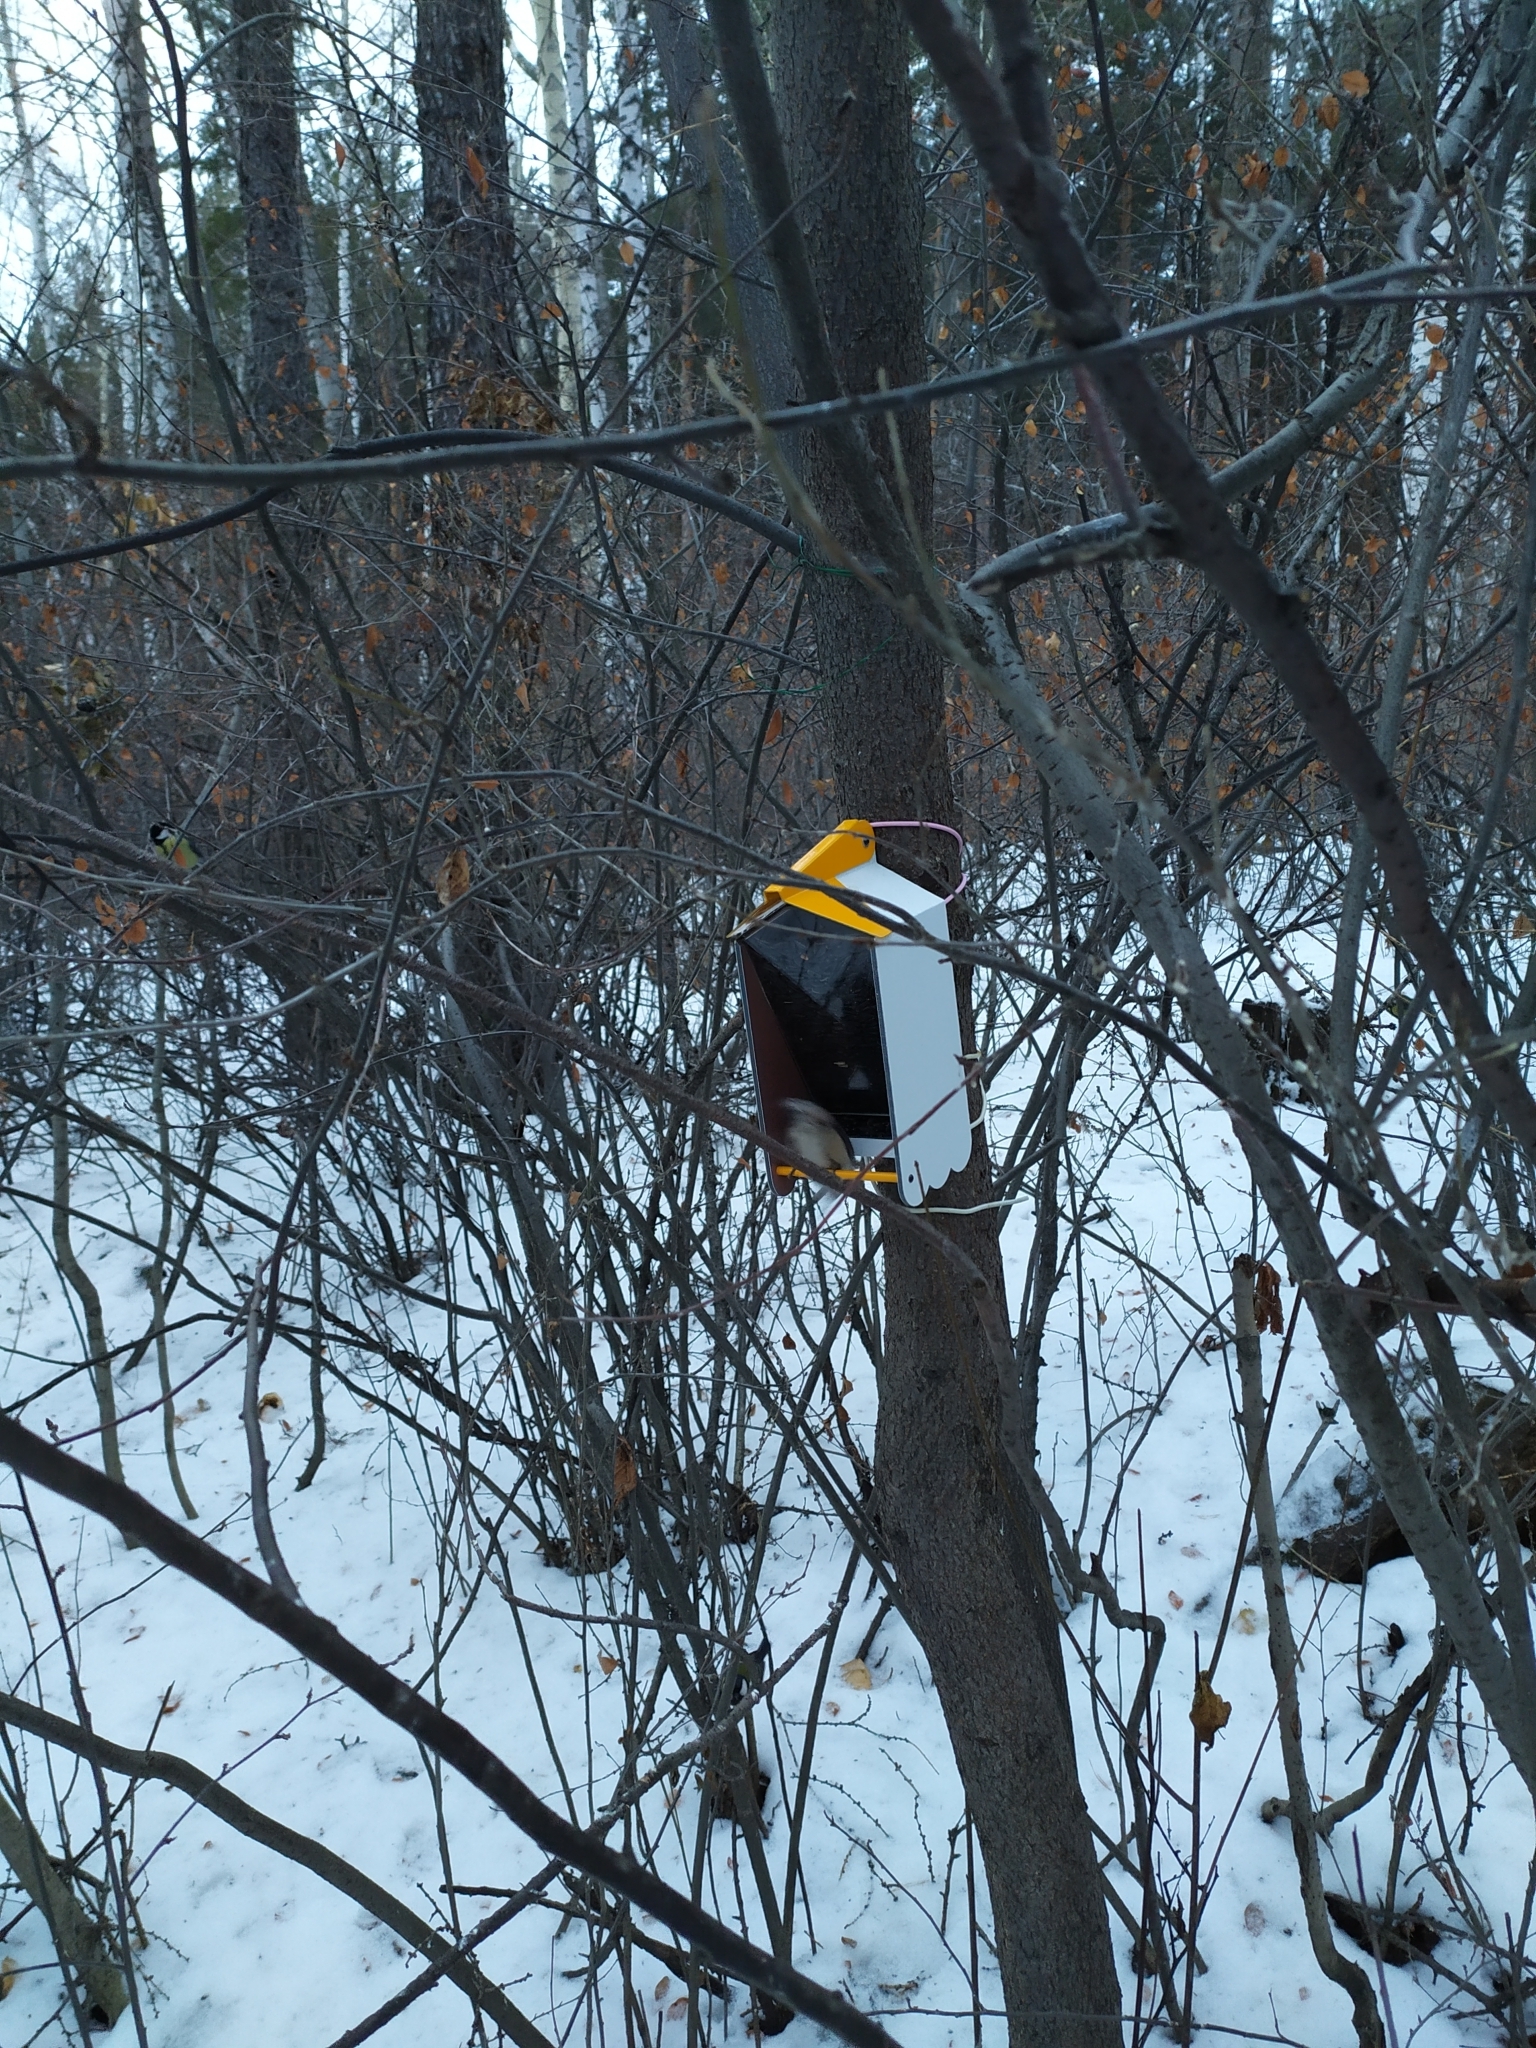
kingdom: Animalia
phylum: Chordata
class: Aves
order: Passeriformes
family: Sittidae
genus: Sitta
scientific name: Sitta europaea
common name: Eurasian nuthatch
